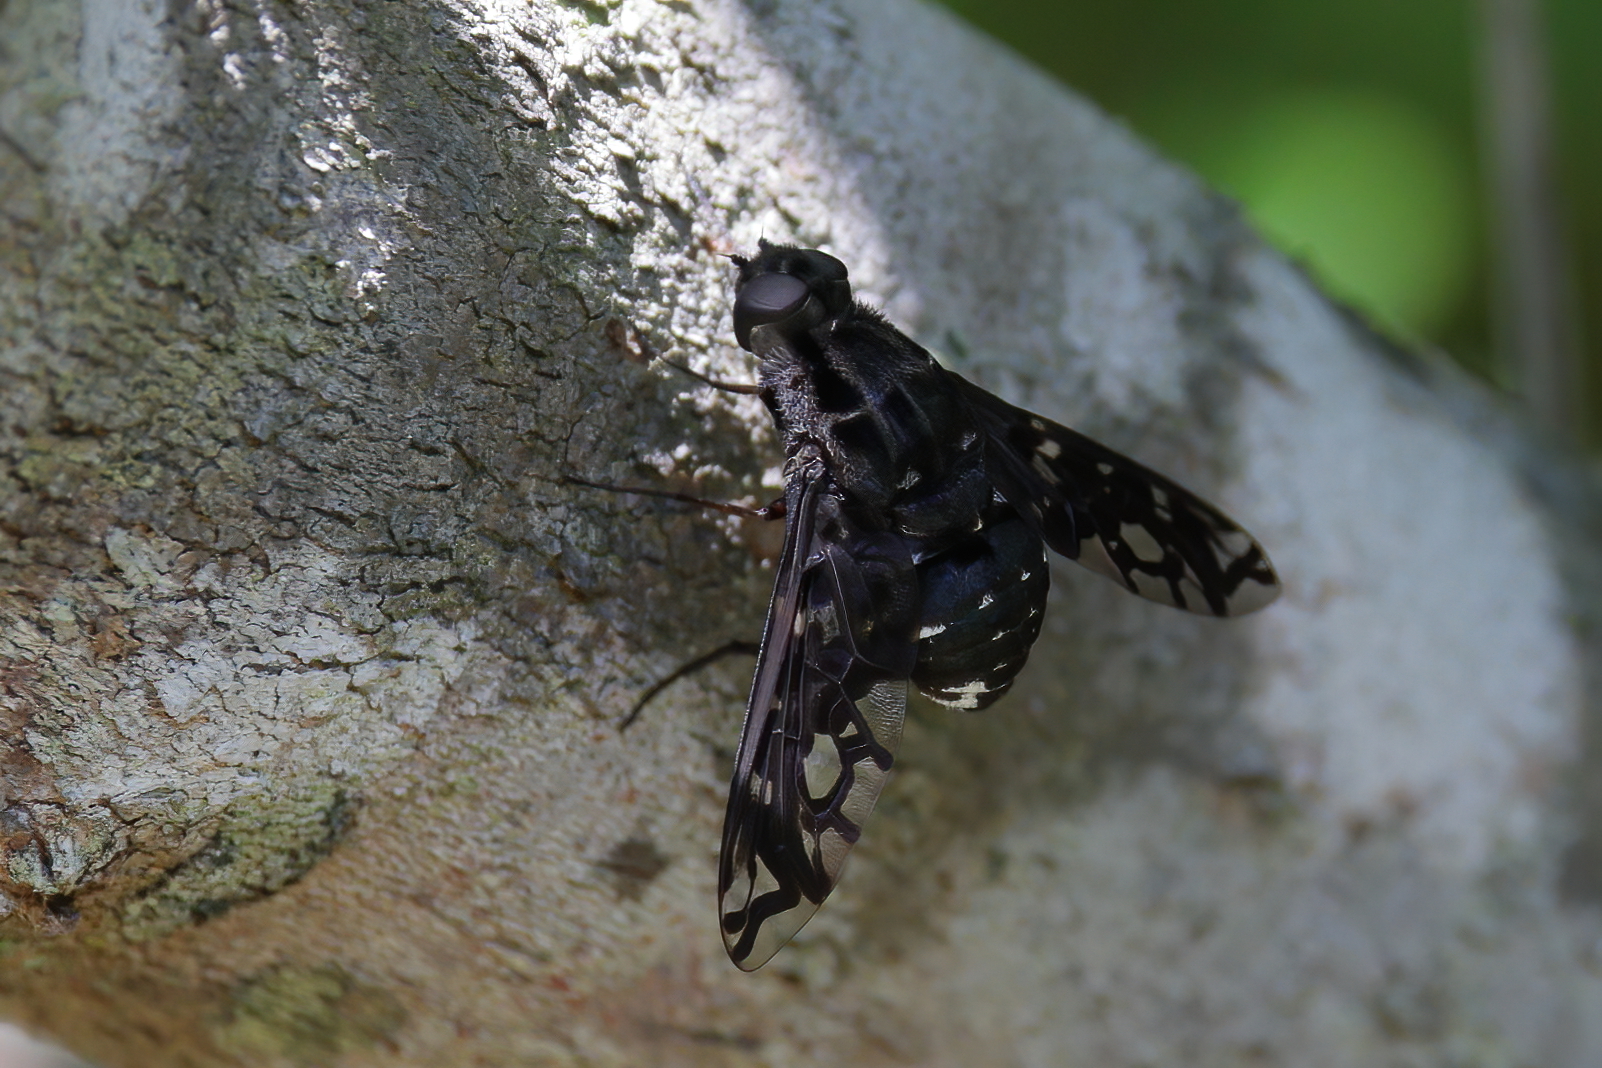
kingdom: Animalia
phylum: Arthropoda
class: Insecta
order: Diptera
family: Bombyliidae
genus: Xenox
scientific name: Xenox tigrinus
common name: Tiger bee fly
